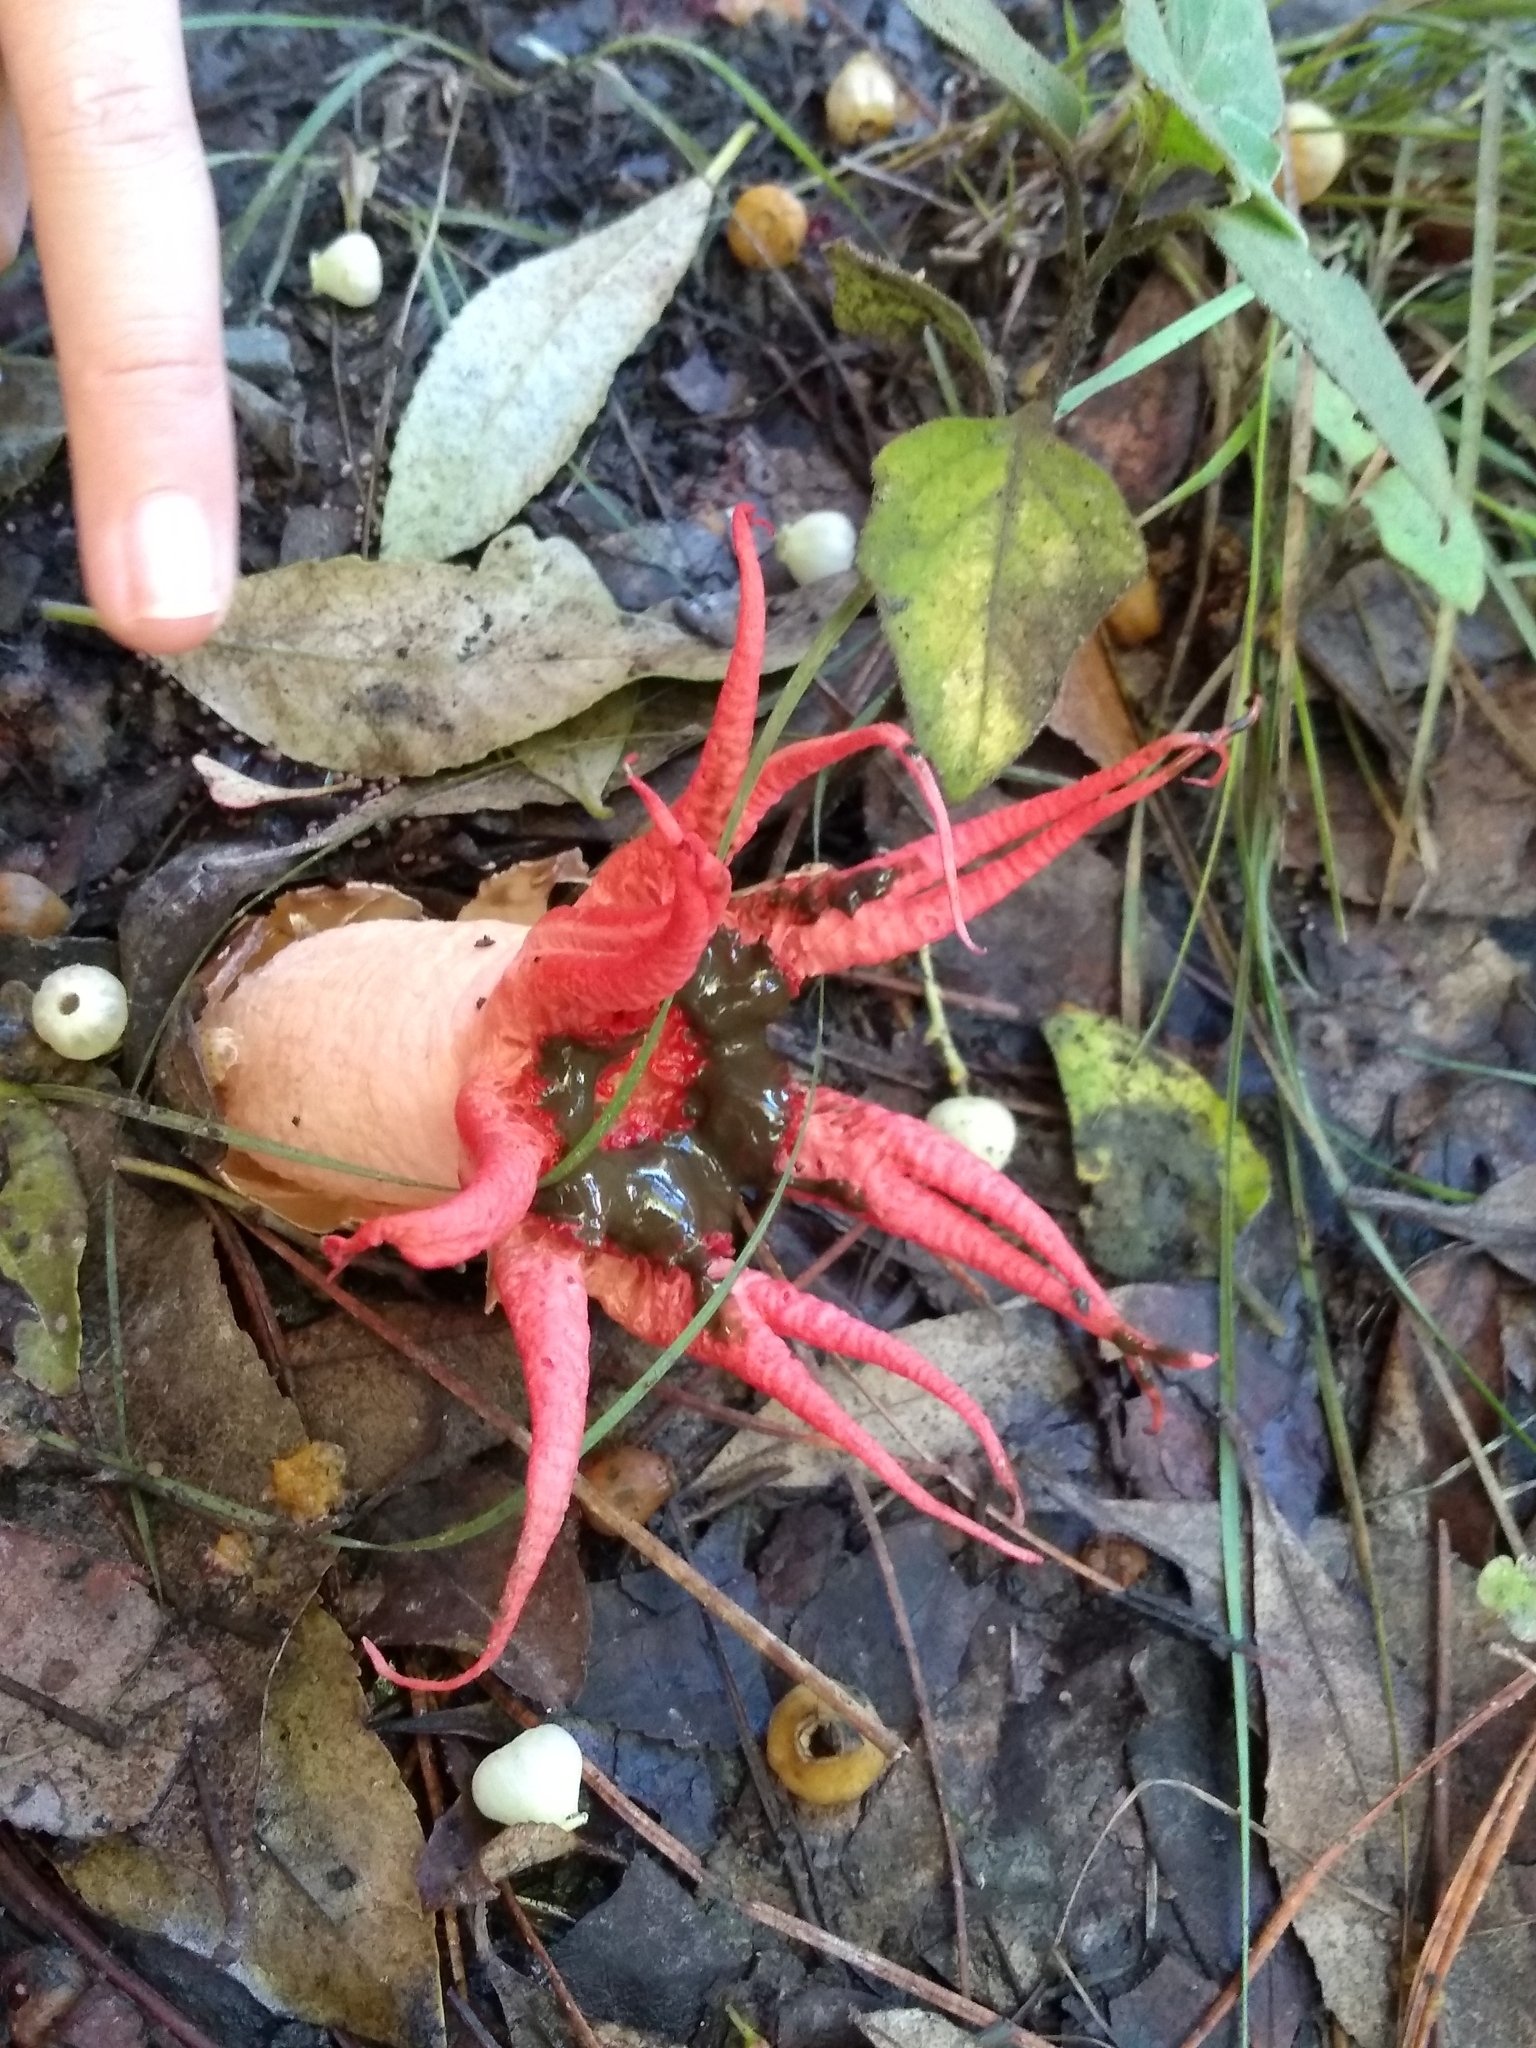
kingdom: Fungi
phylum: Basidiomycota
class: Agaricomycetes
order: Phallales
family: Phallaceae
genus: Aseroe
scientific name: Aseroe rubra
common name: Starfish fungus
